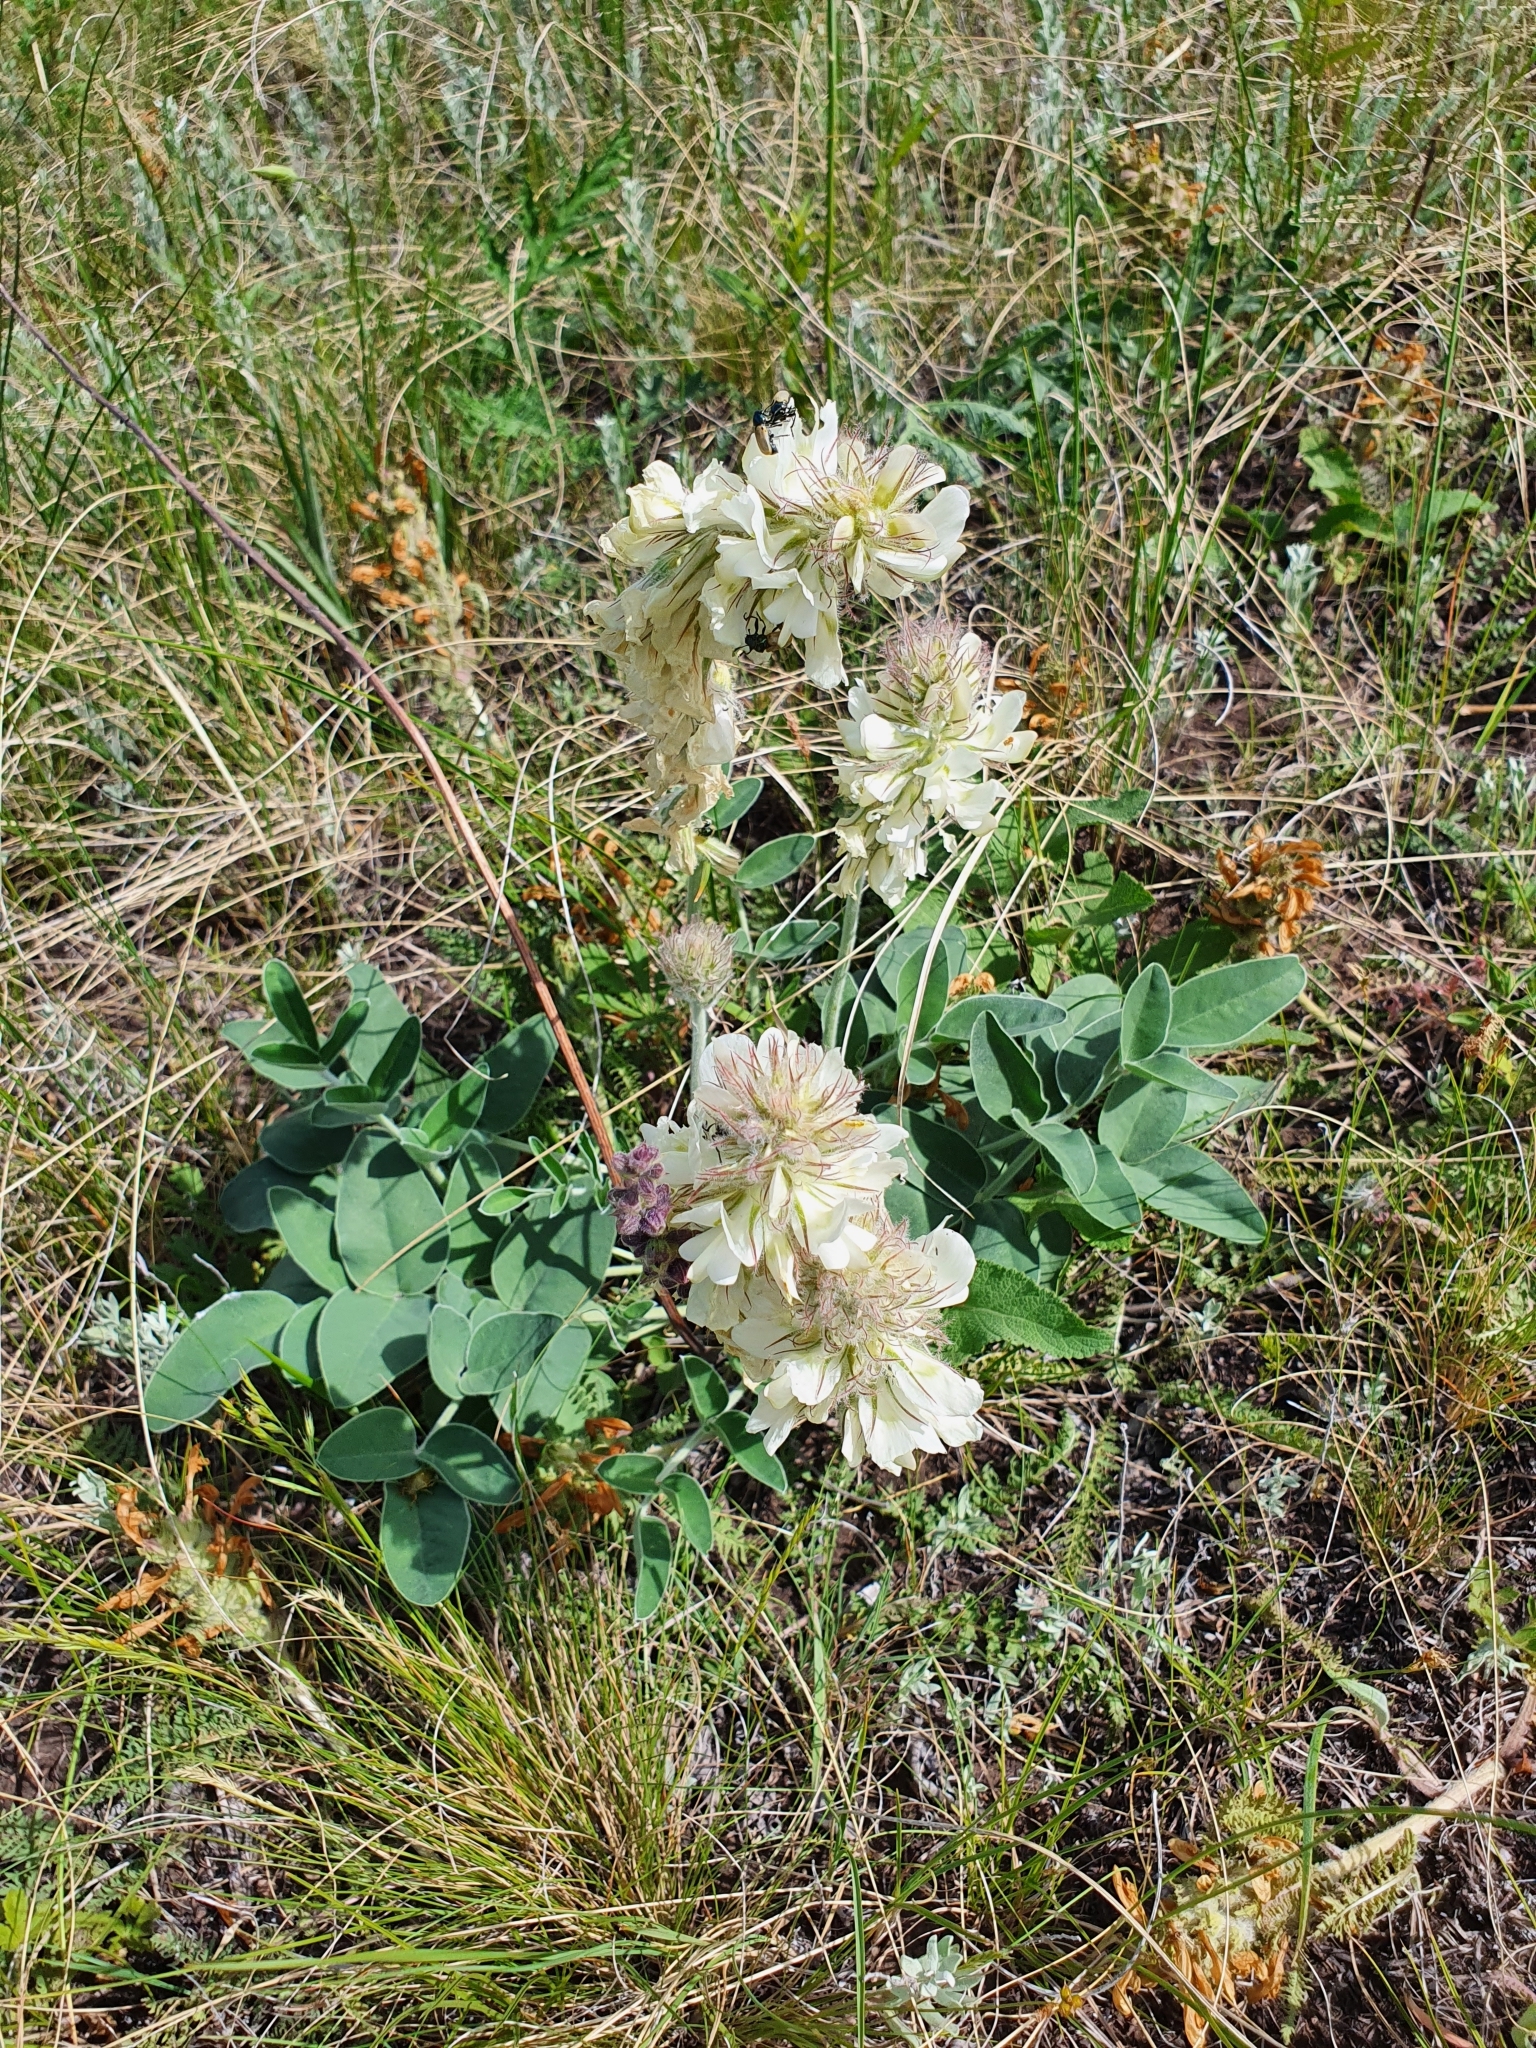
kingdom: Plantae
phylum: Tracheophyta
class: Magnoliopsida
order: Fabales
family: Fabaceae
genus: Hedysarum
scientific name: Hedysarum grandiflorum
